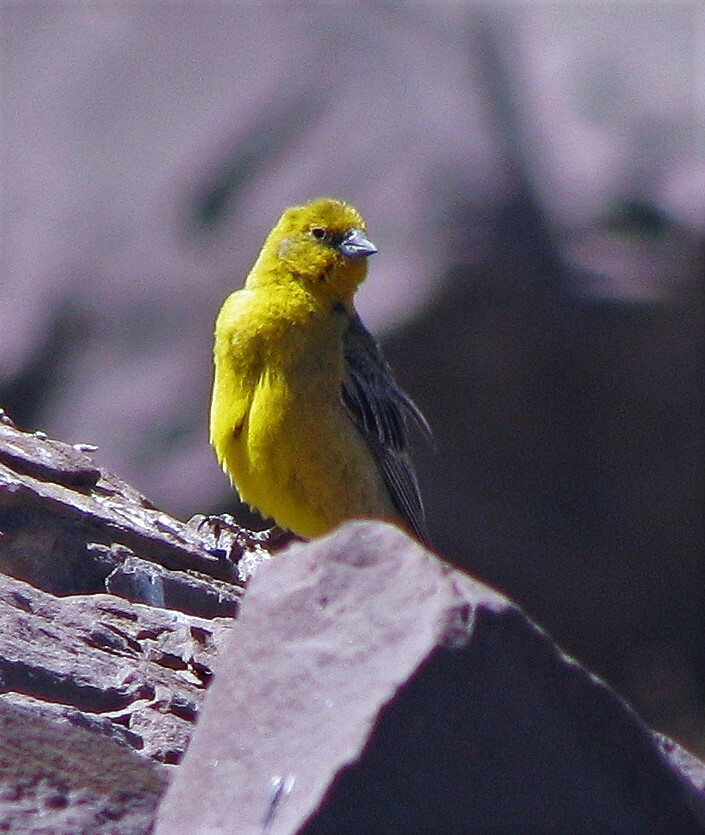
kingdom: Animalia
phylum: Chordata
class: Aves
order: Passeriformes
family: Thraupidae
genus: Sicalis
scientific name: Sicalis auriventris
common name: Greater yellow finch
